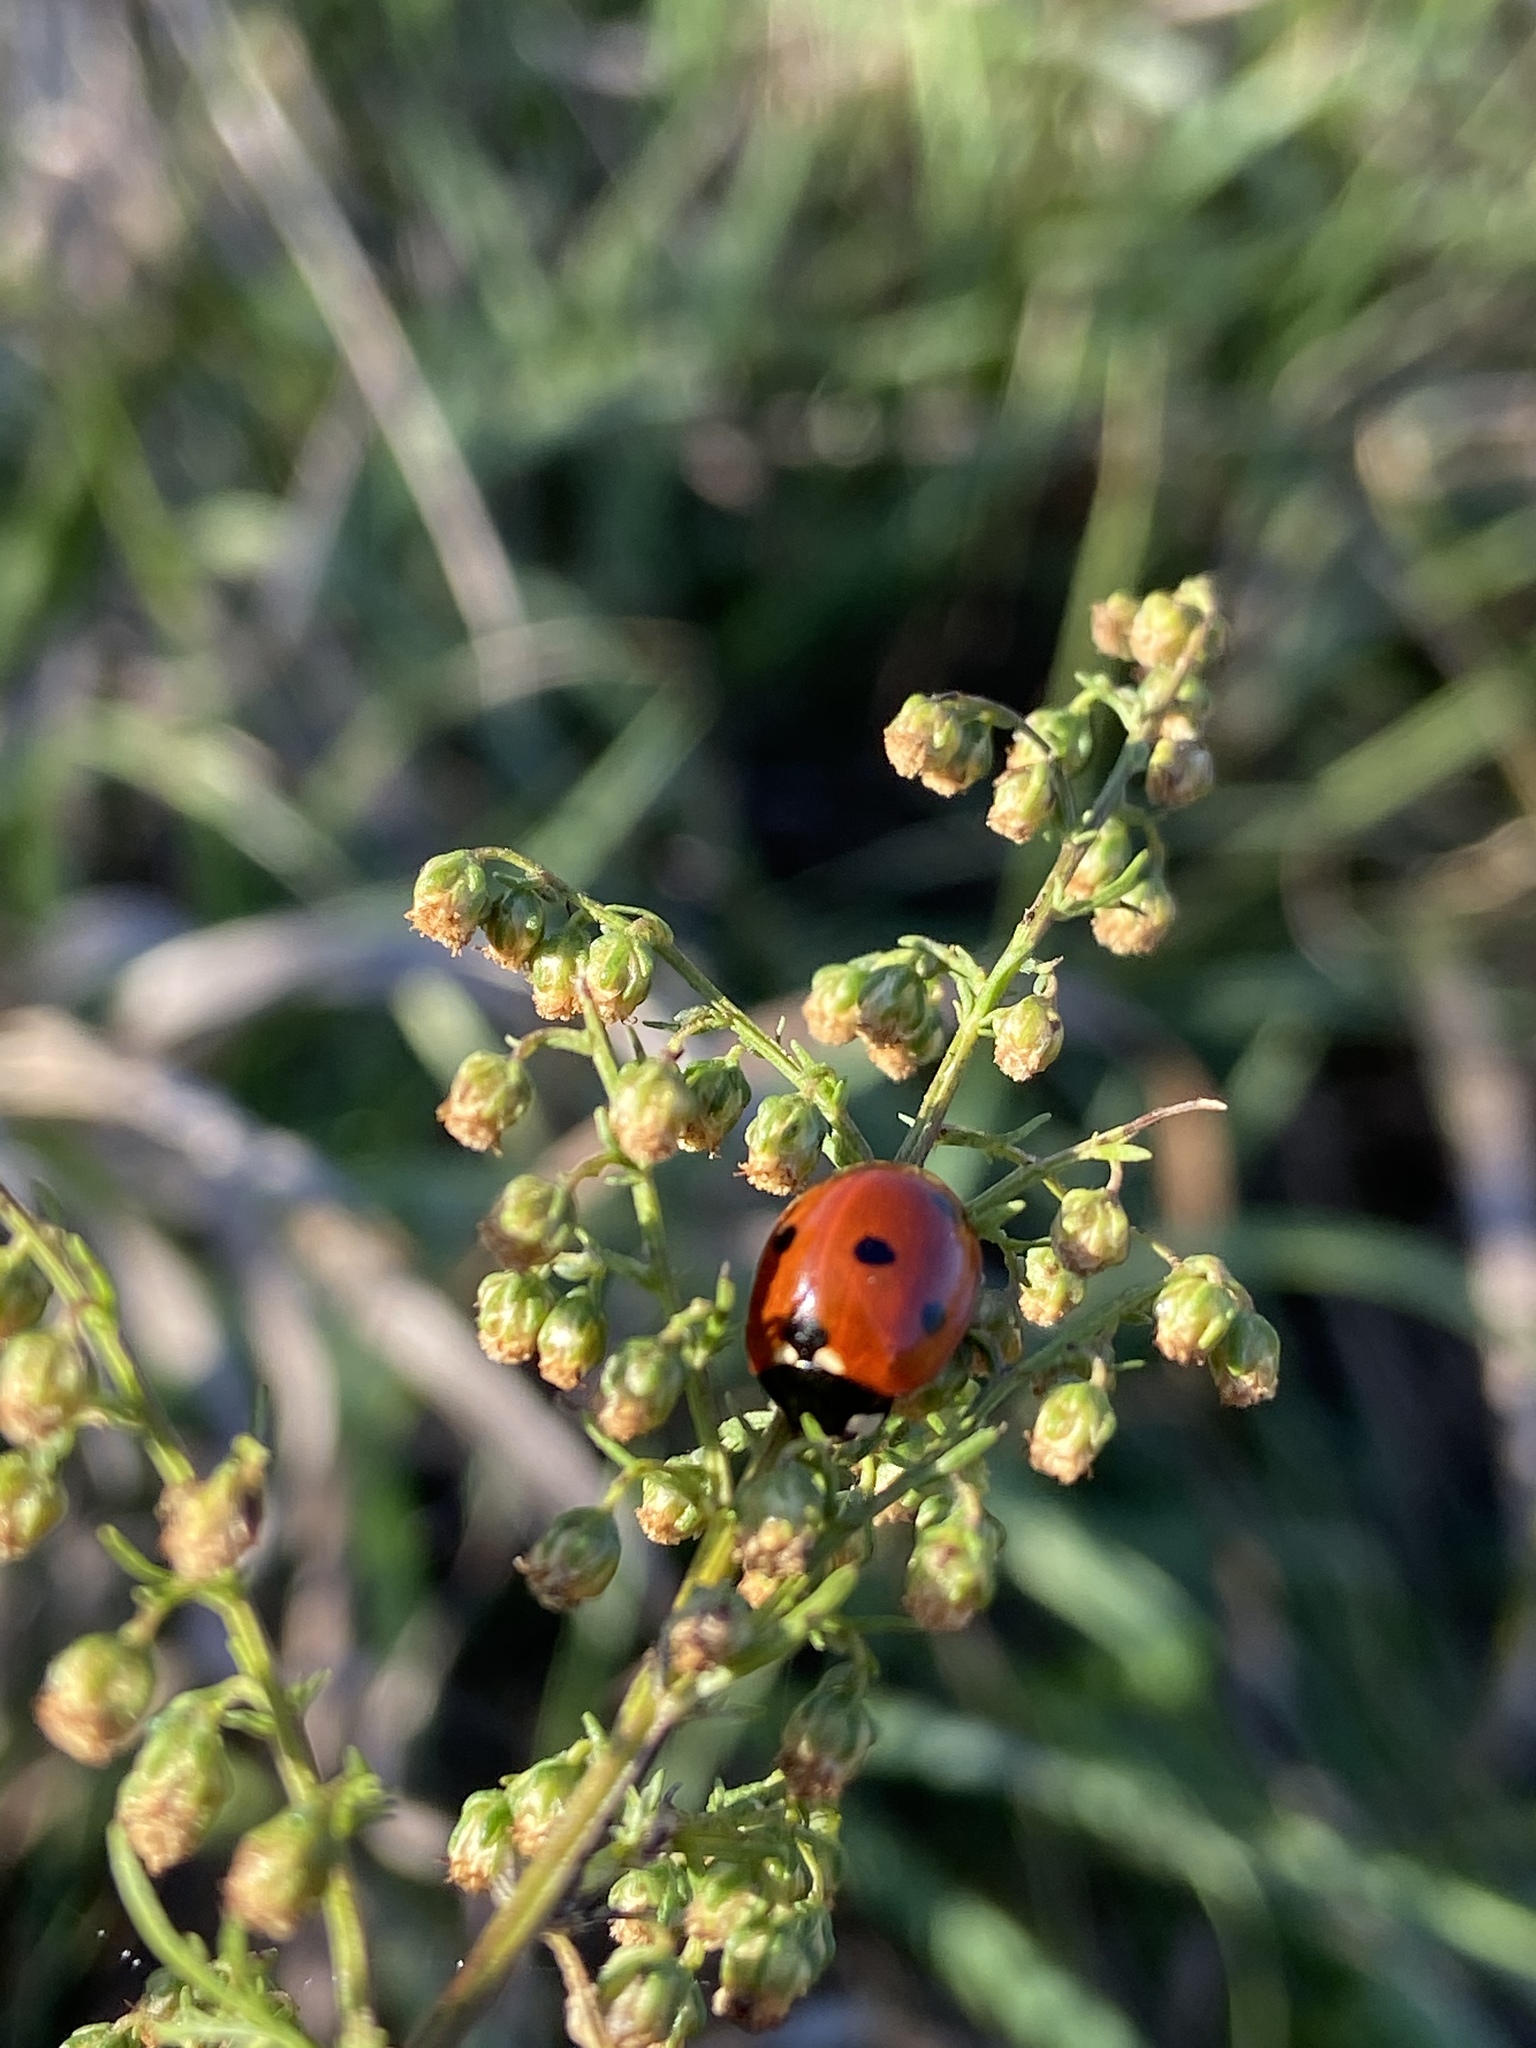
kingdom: Animalia
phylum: Arthropoda
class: Insecta
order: Coleoptera
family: Coccinellidae
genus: Coccinella
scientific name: Coccinella septempunctata
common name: Sevenspotted lady beetle
